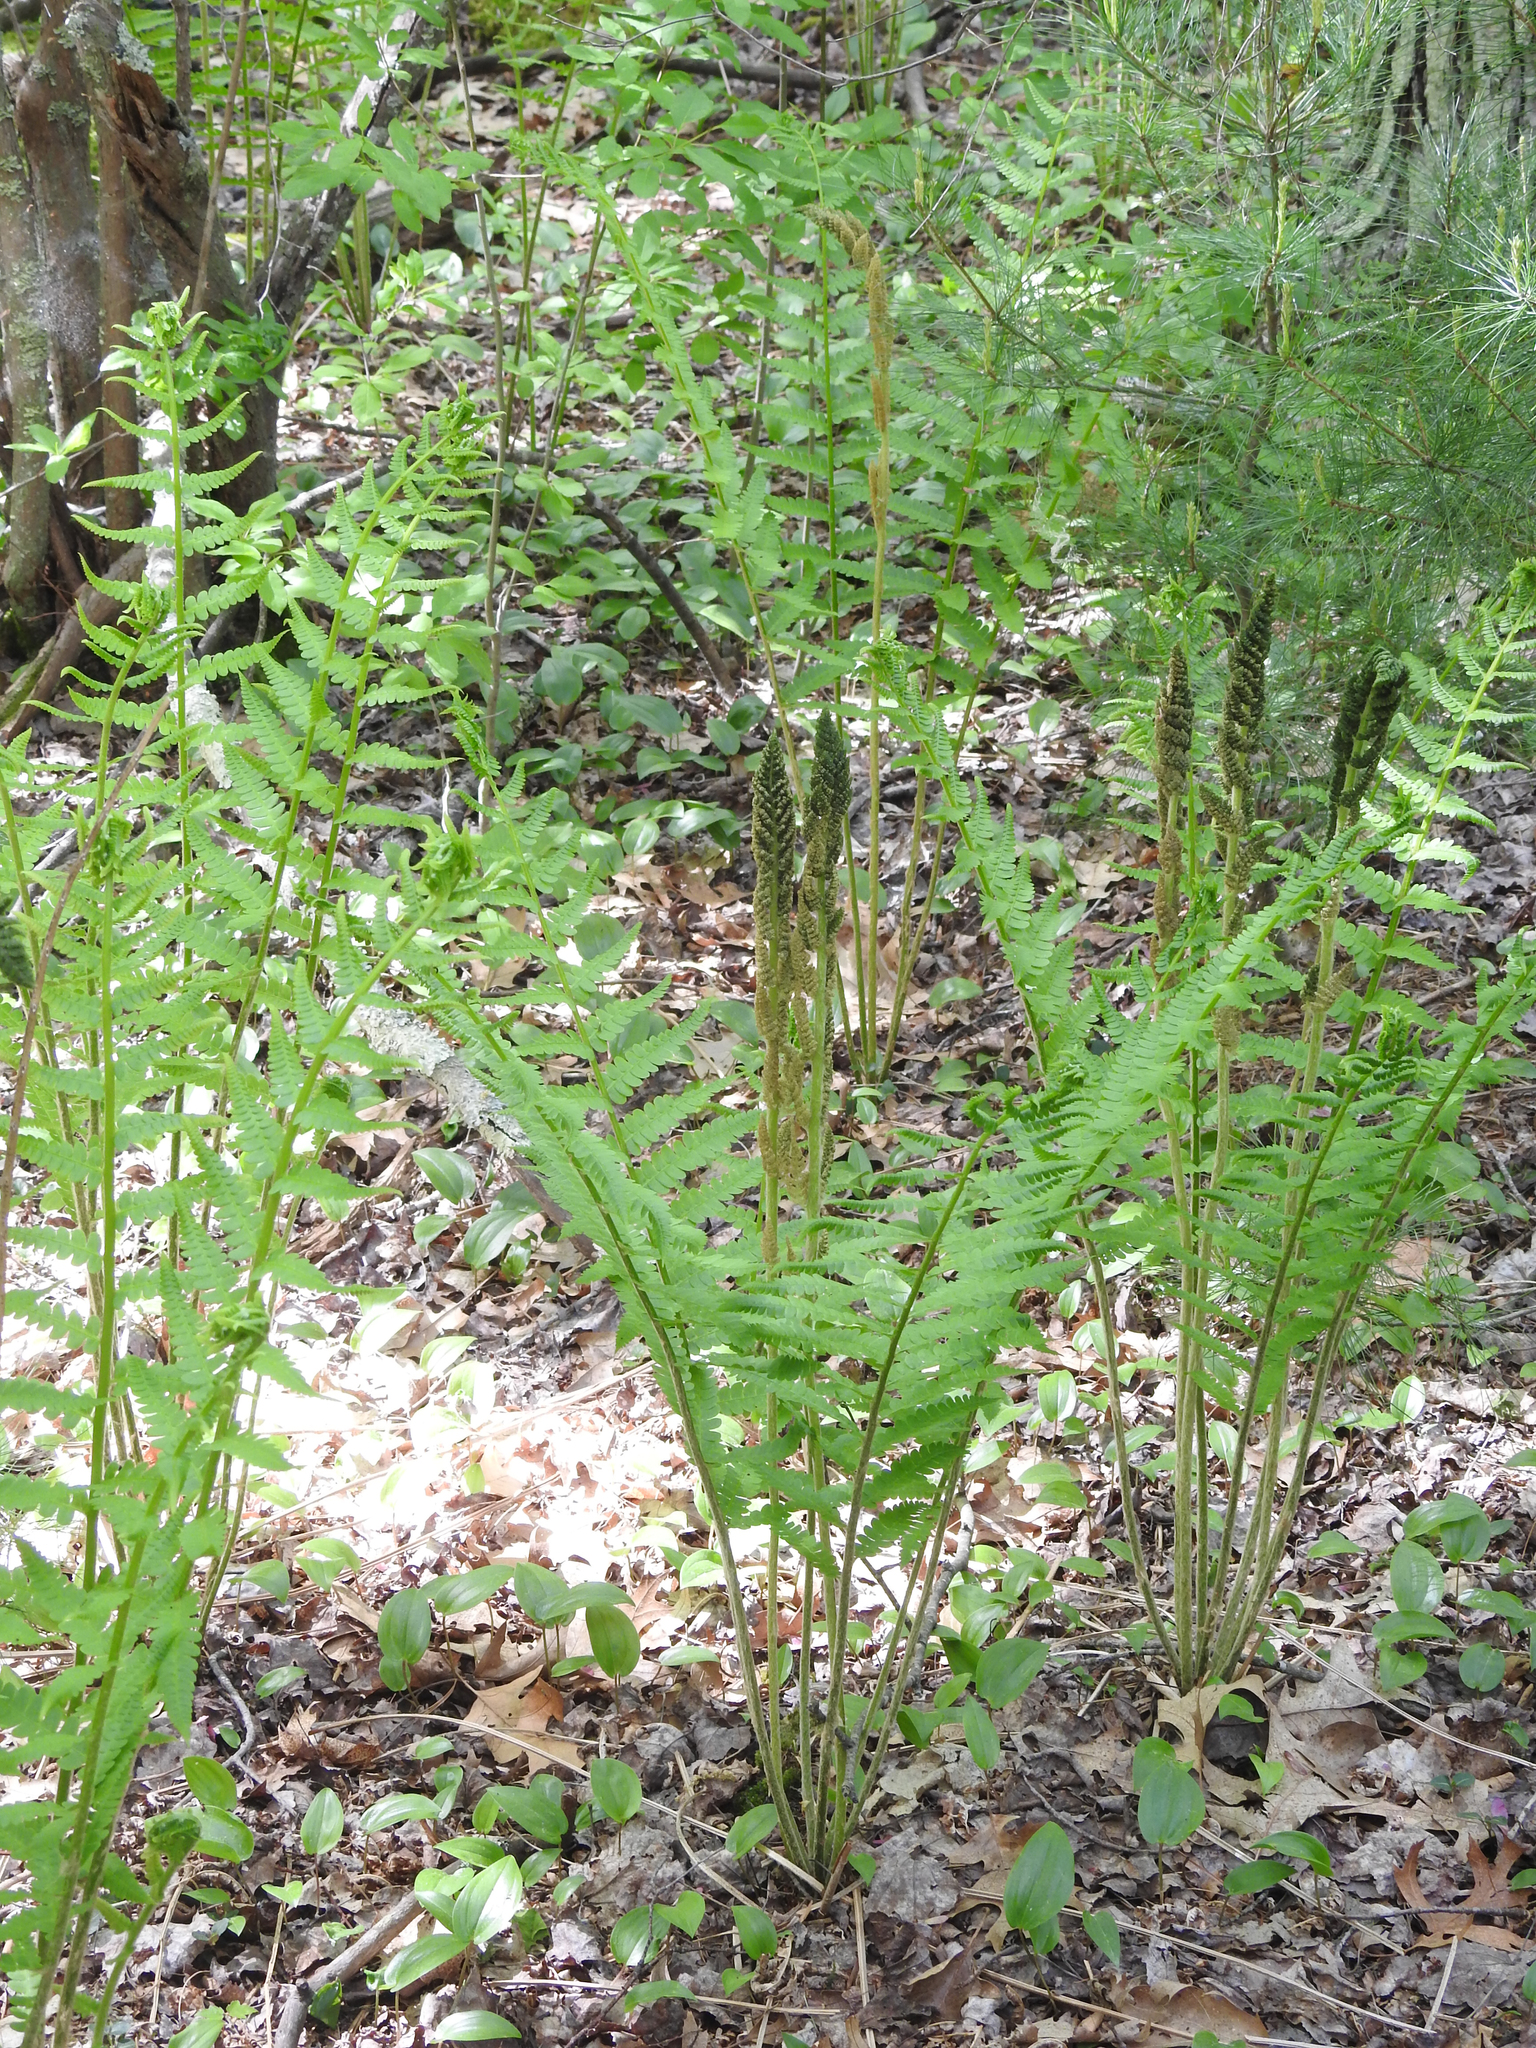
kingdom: Plantae
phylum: Tracheophyta
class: Polypodiopsida
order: Osmundales
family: Osmundaceae
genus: Osmundastrum
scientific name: Osmundastrum cinnamomeum
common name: Cinnamon fern
